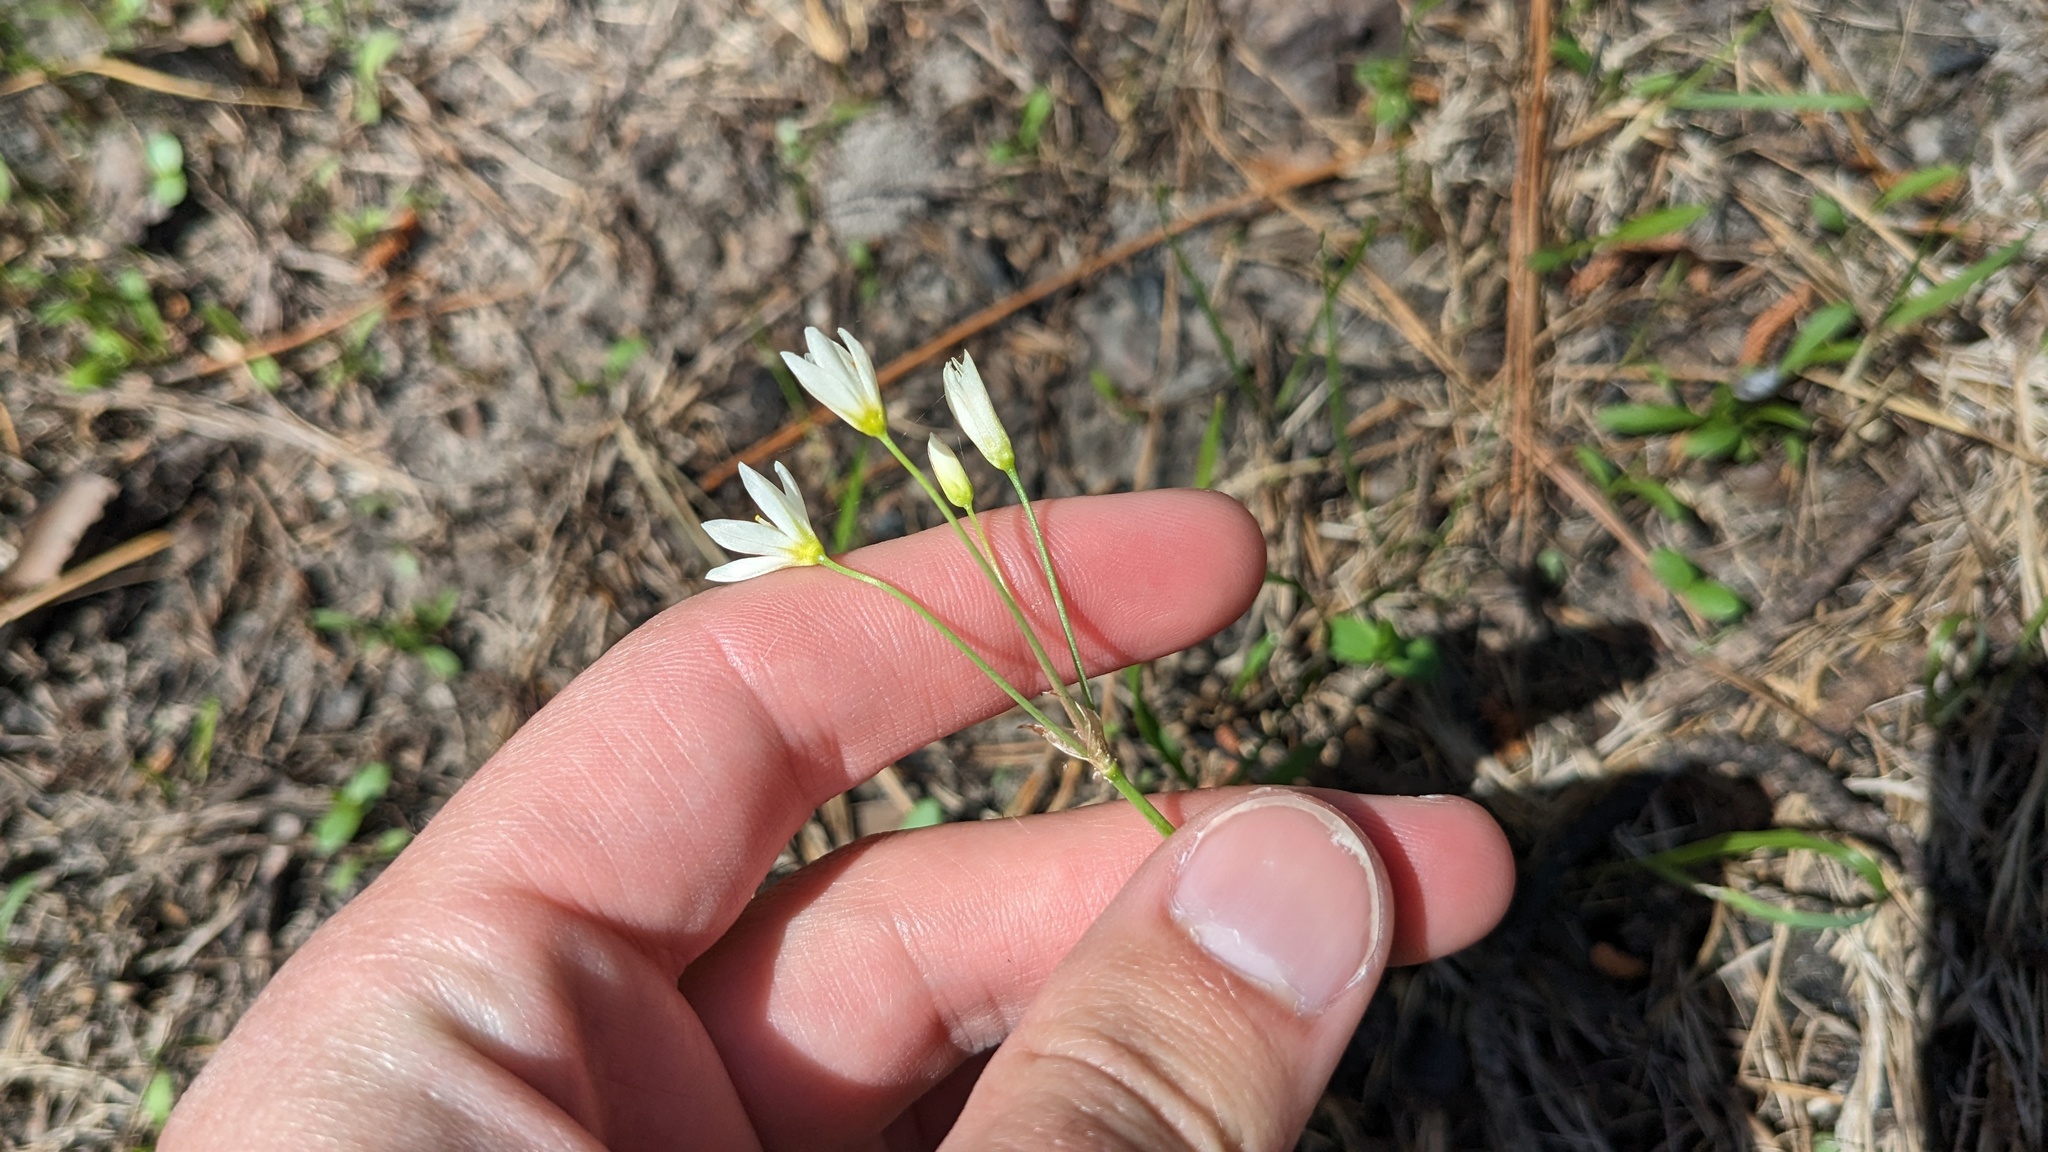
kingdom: Plantae
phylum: Tracheophyta
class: Liliopsida
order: Asparagales
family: Amaryllidaceae
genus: Nothoscordum
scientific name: Nothoscordum bivalve
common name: Crow-poison
